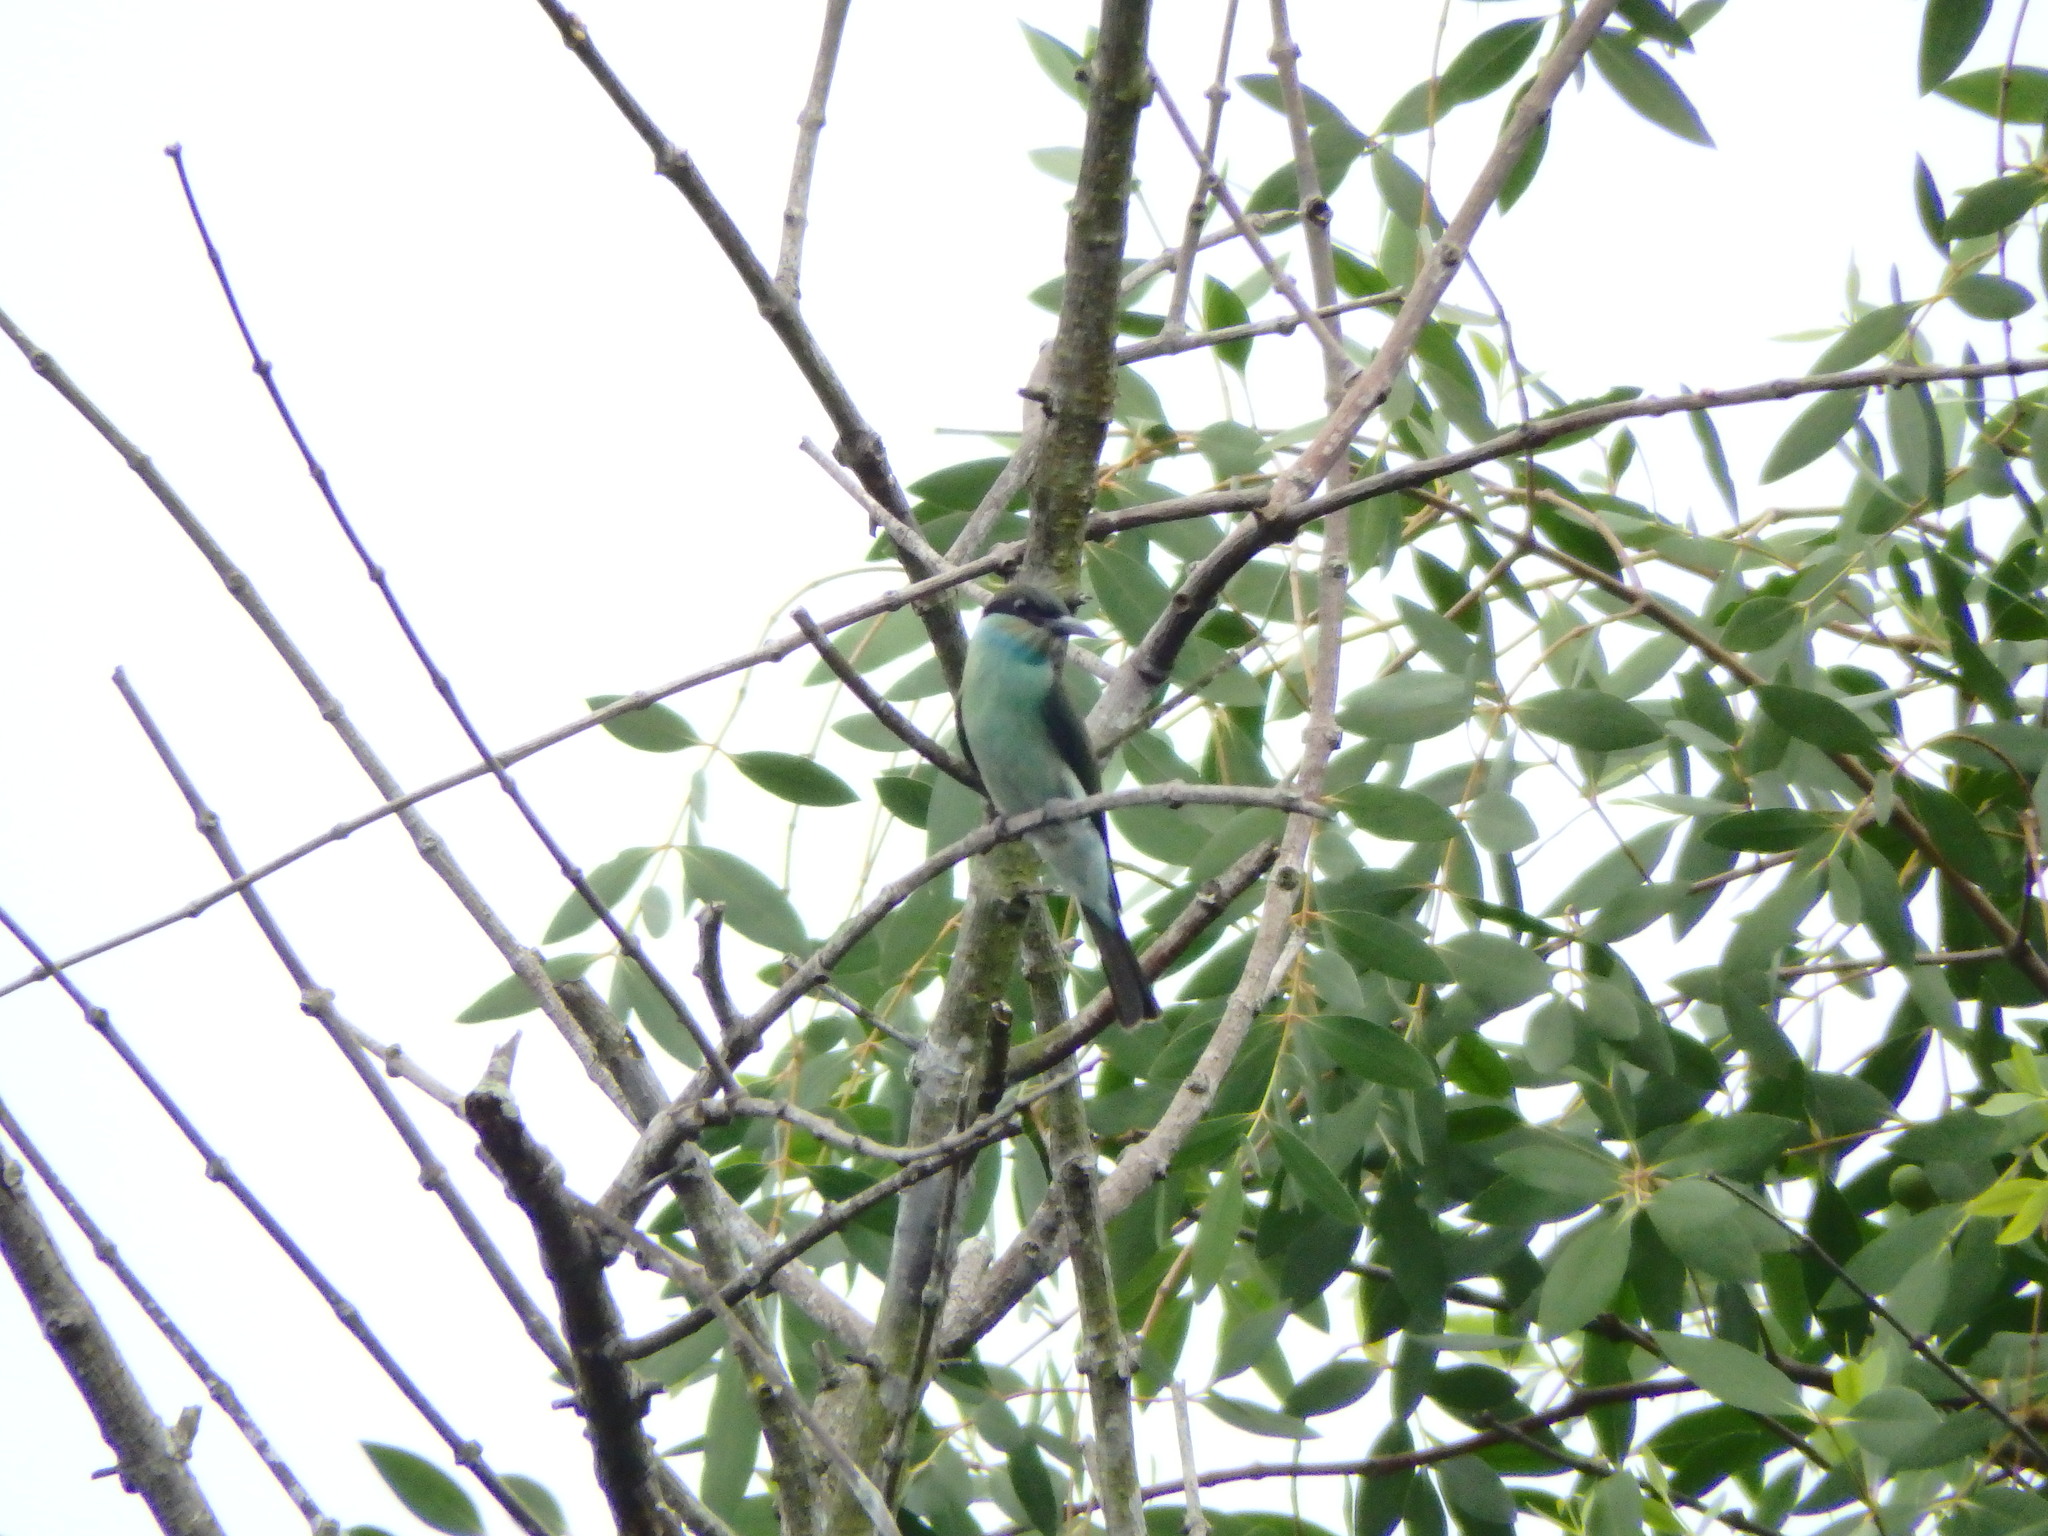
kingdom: Animalia
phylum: Chordata
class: Aves
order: Coraciiformes
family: Meropidae
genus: Merops
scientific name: Merops viridis
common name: Blue-throated bee-eater
